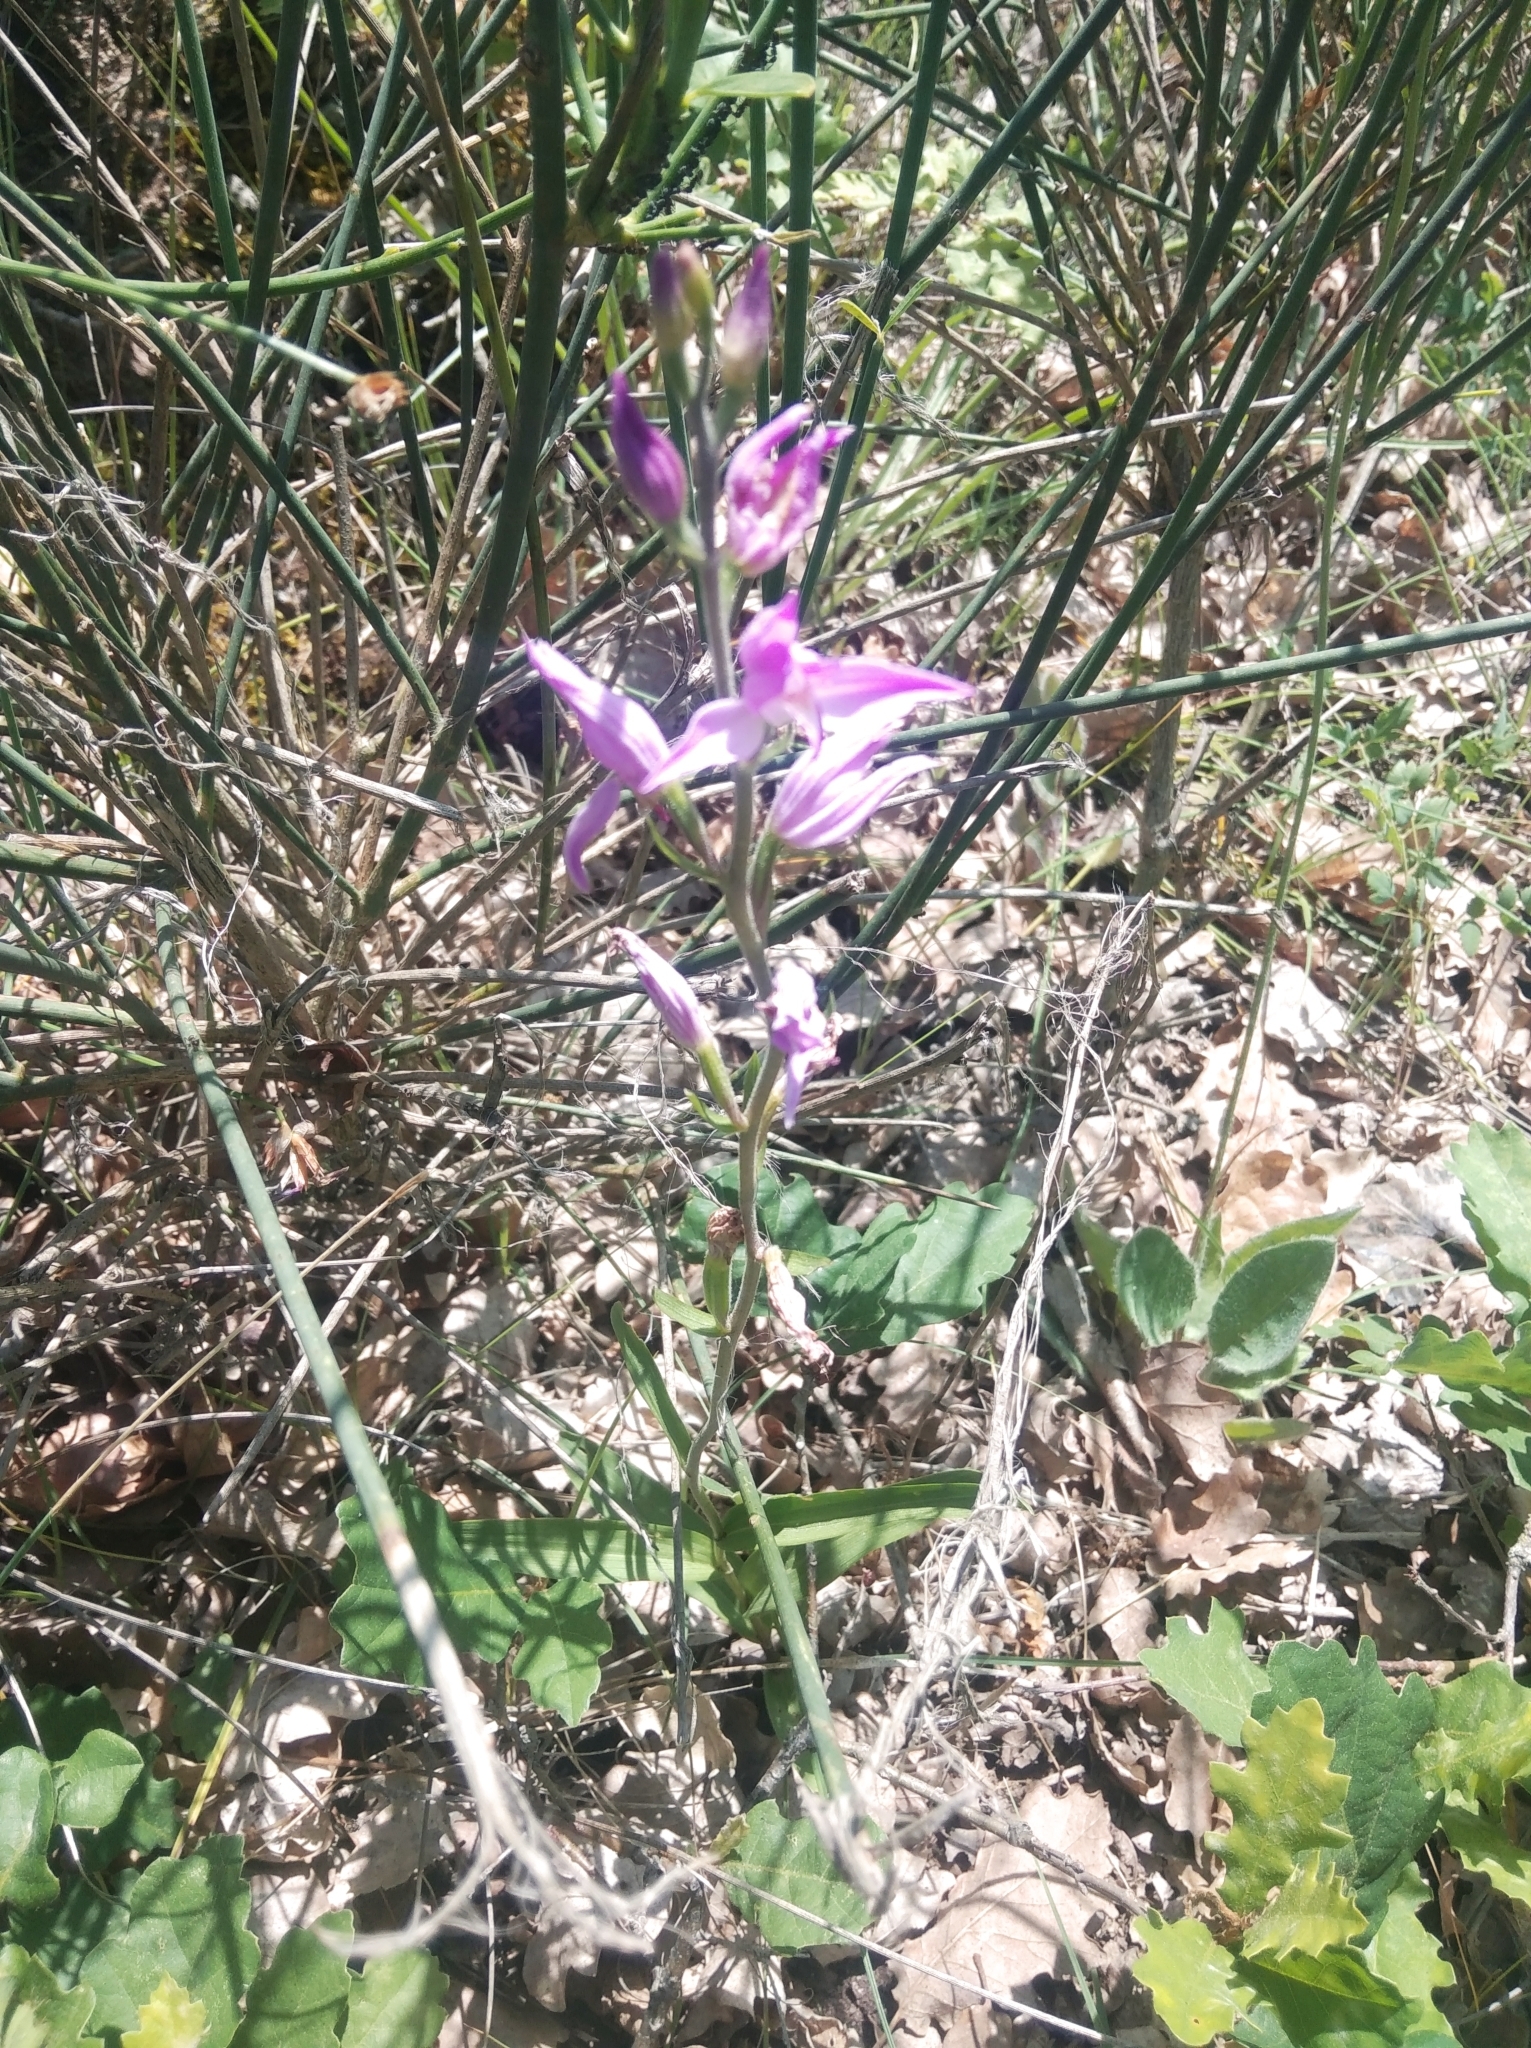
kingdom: Plantae
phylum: Tracheophyta
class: Liliopsida
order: Asparagales
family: Orchidaceae
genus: Cephalanthera
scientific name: Cephalanthera rubra
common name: Red helleborine
